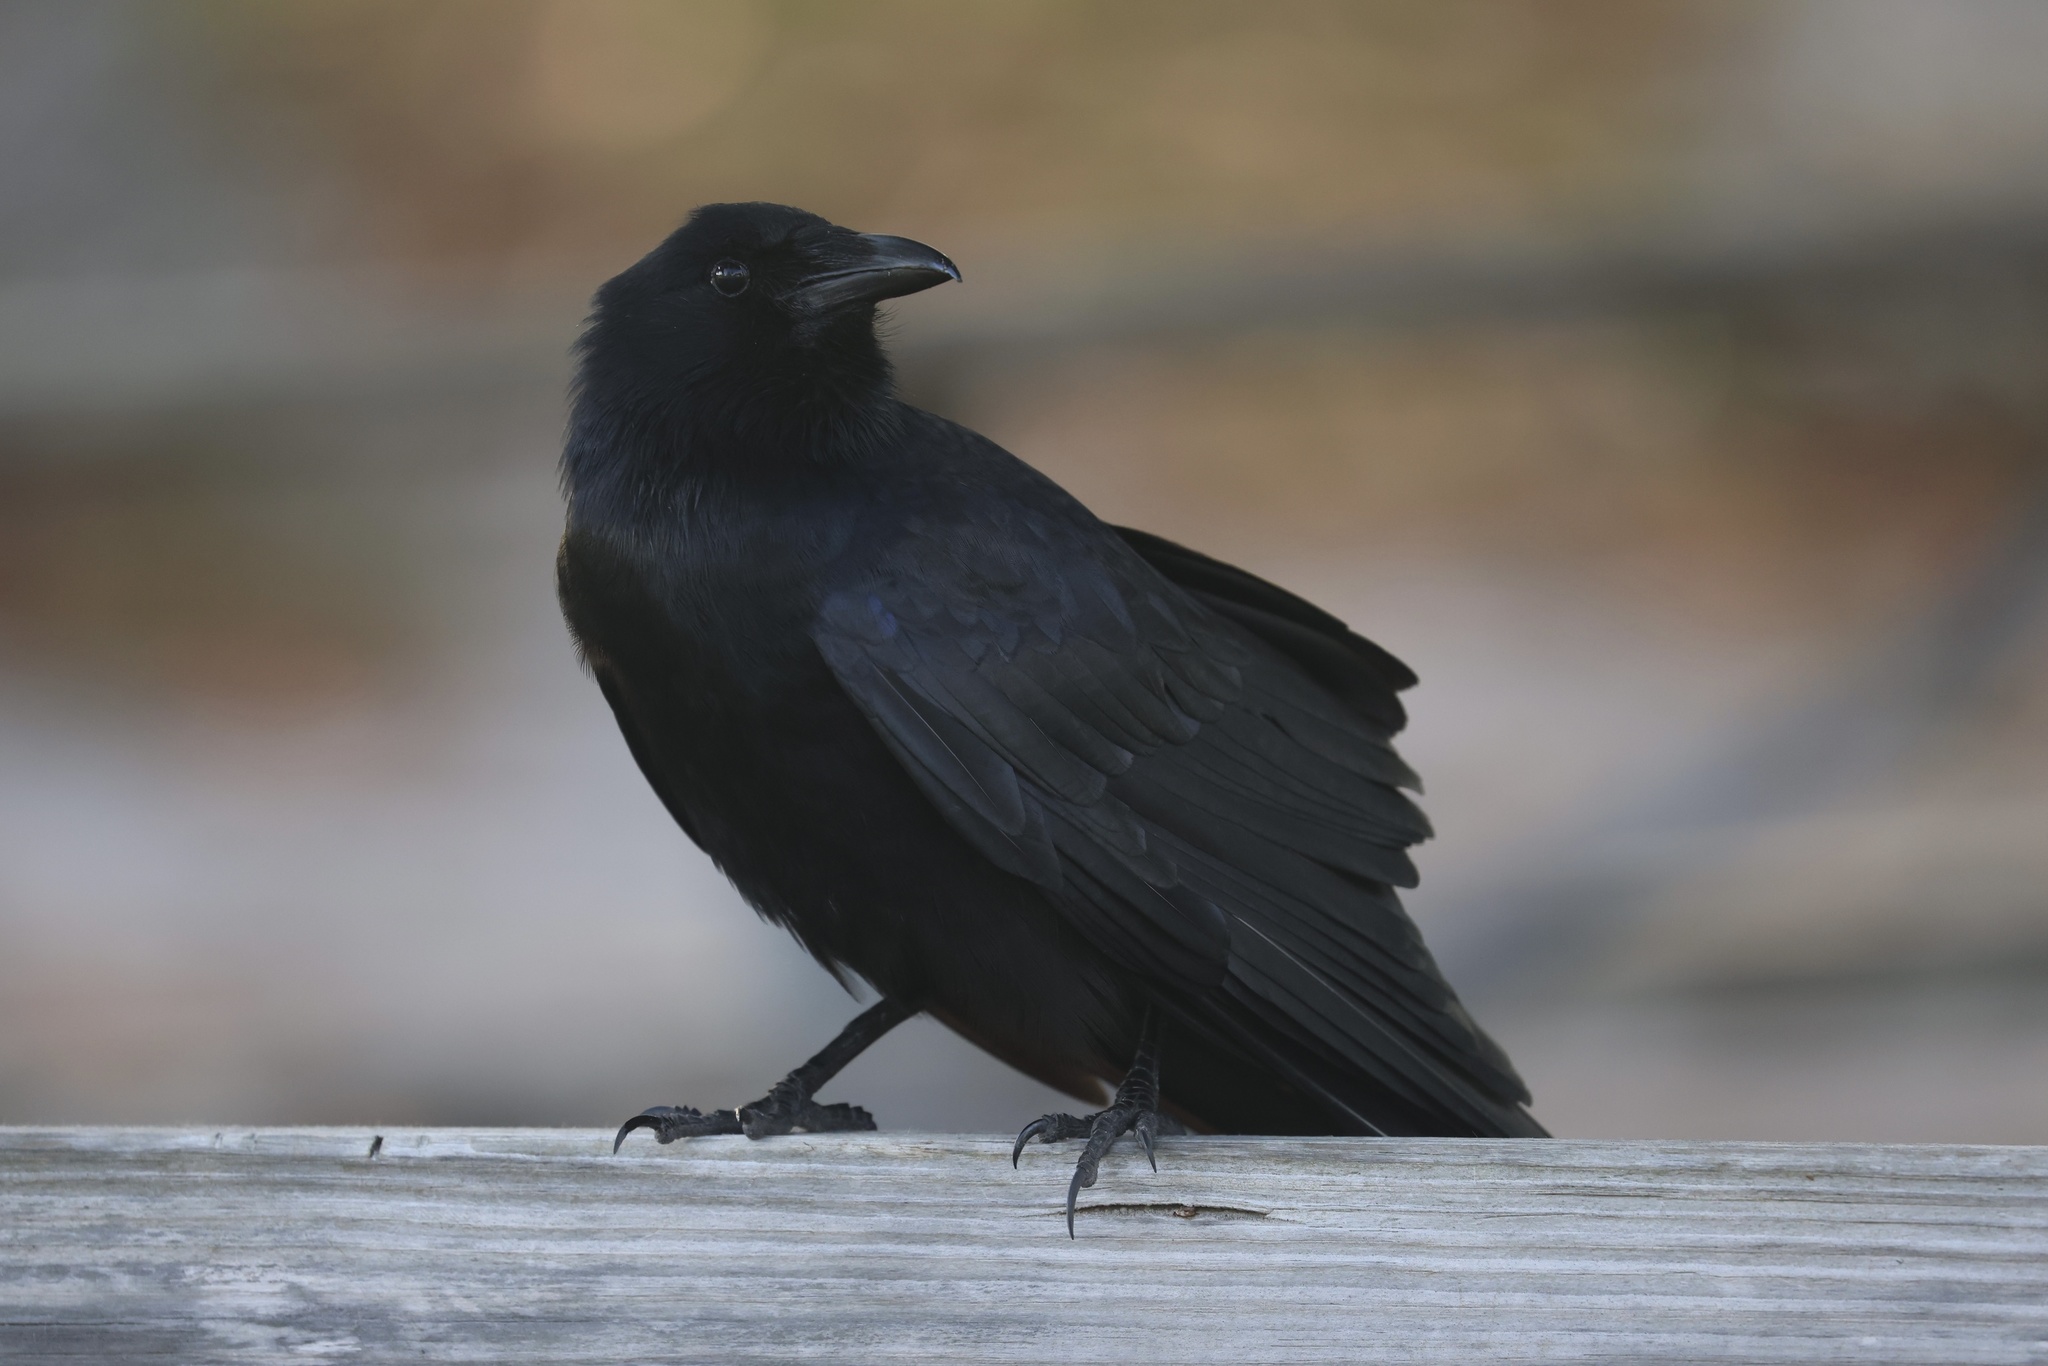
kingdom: Animalia
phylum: Chordata
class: Aves
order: Passeriformes
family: Corvidae
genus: Corvus
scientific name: Corvus ossifragus
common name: Fish crow
